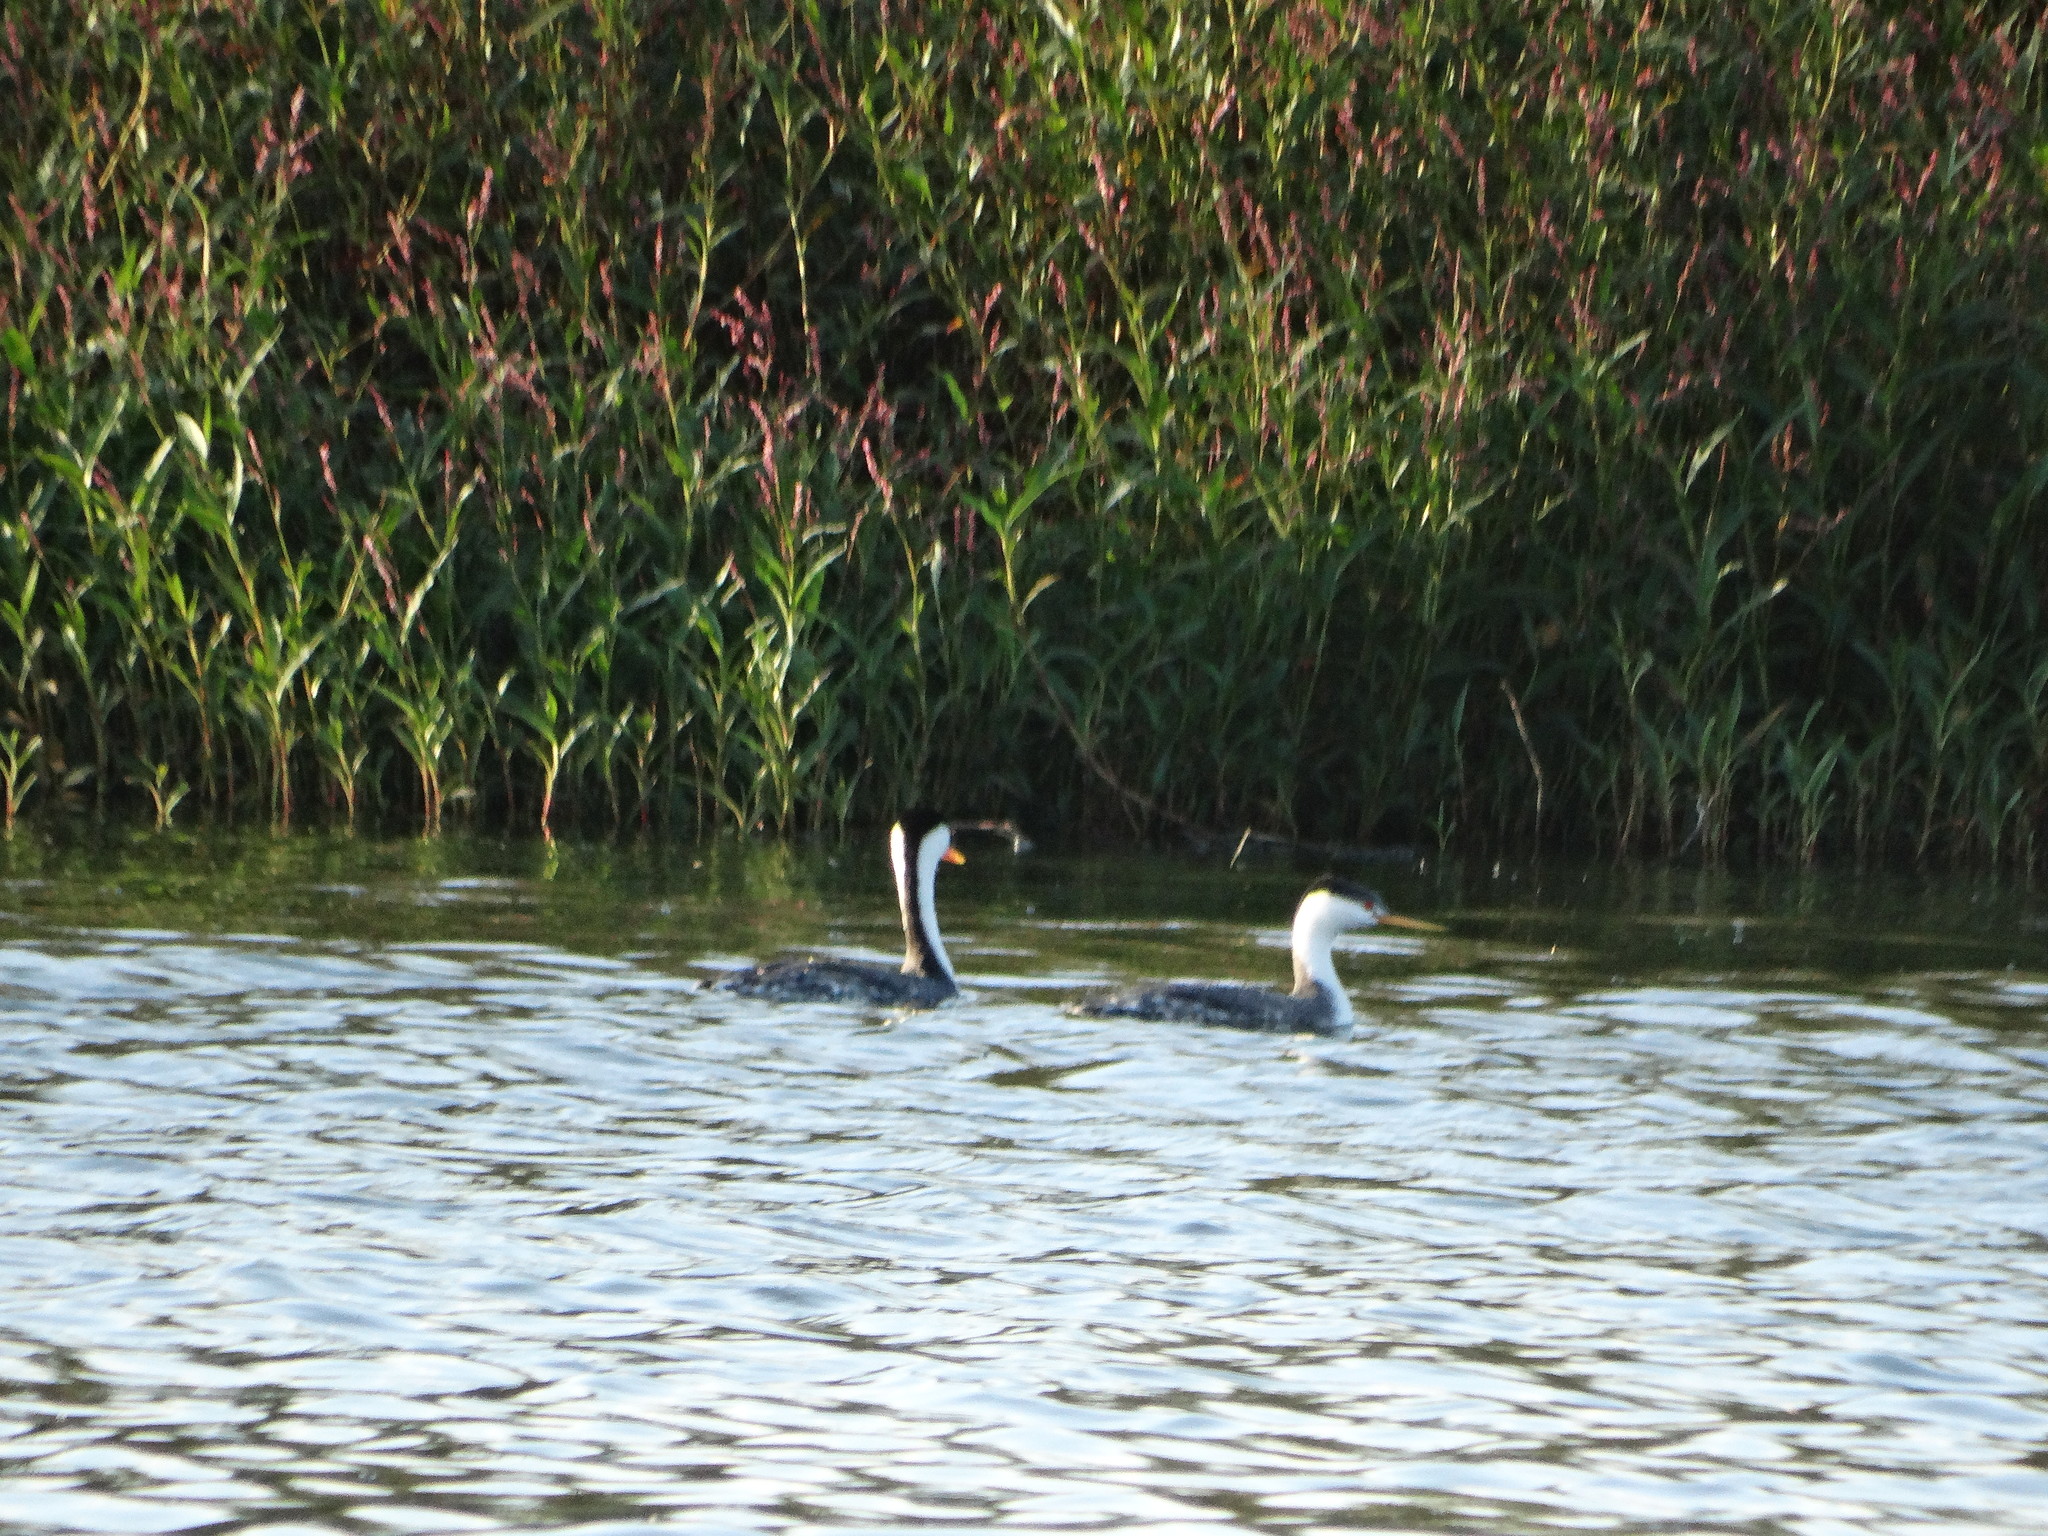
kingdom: Animalia
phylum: Chordata
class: Aves
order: Podicipediformes
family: Podicipedidae
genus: Aechmophorus
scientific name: Aechmophorus clarkii
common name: Clark's grebe
